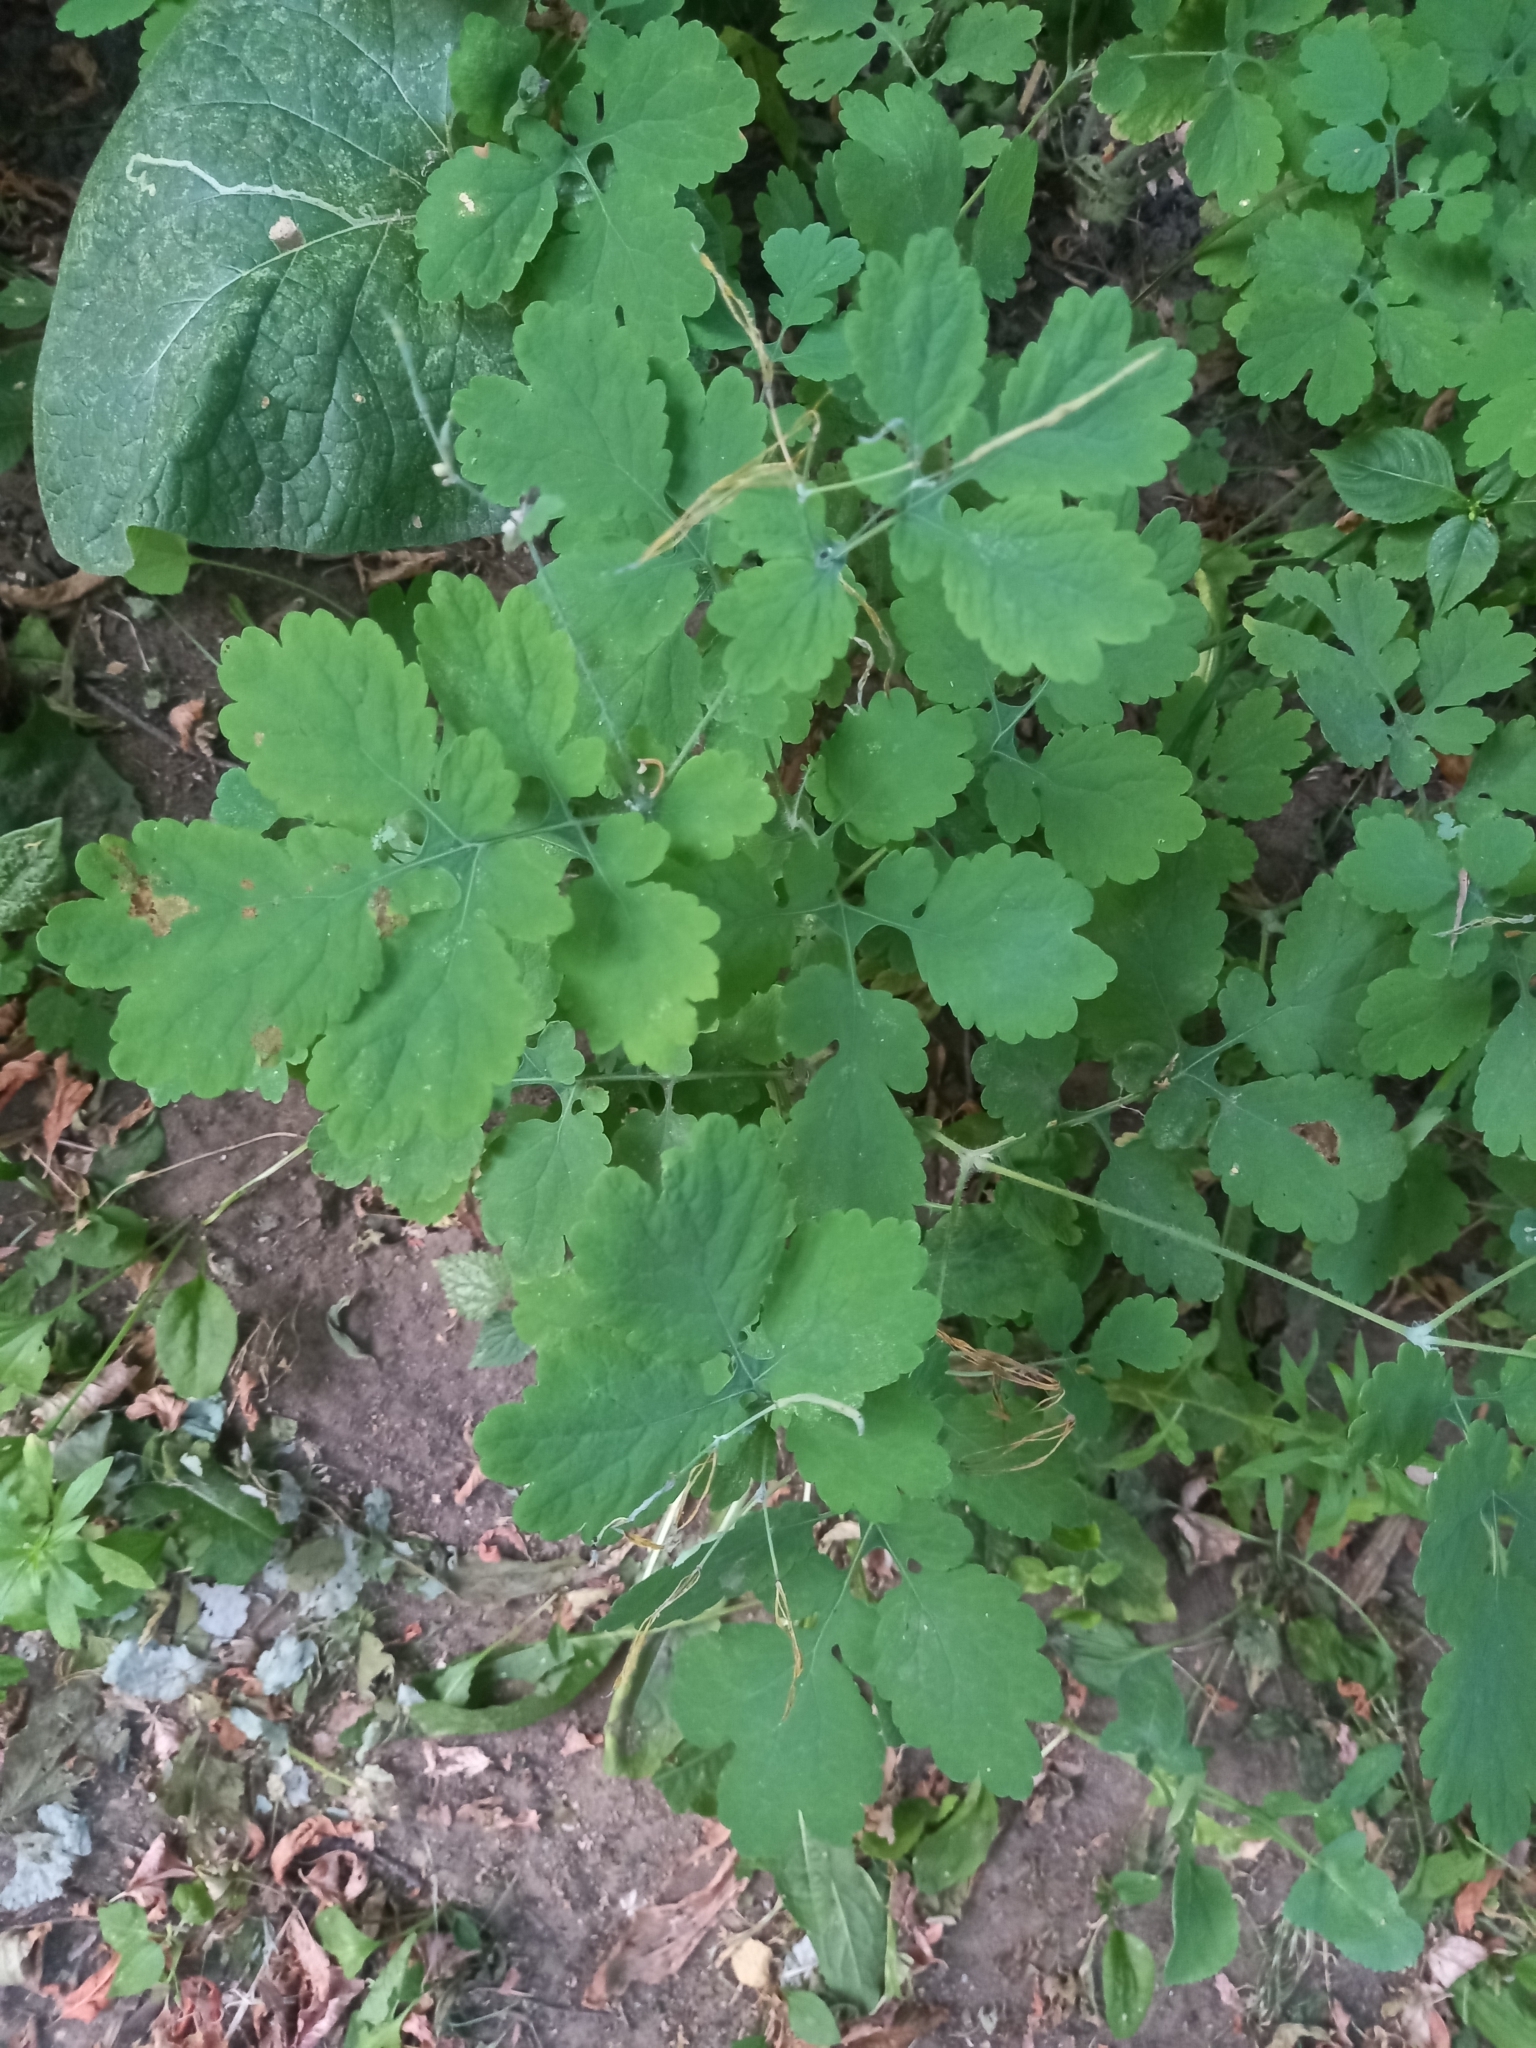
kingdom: Plantae
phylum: Tracheophyta
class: Magnoliopsida
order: Ranunculales
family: Papaveraceae
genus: Chelidonium
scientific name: Chelidonium majus
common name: Greater celandine
